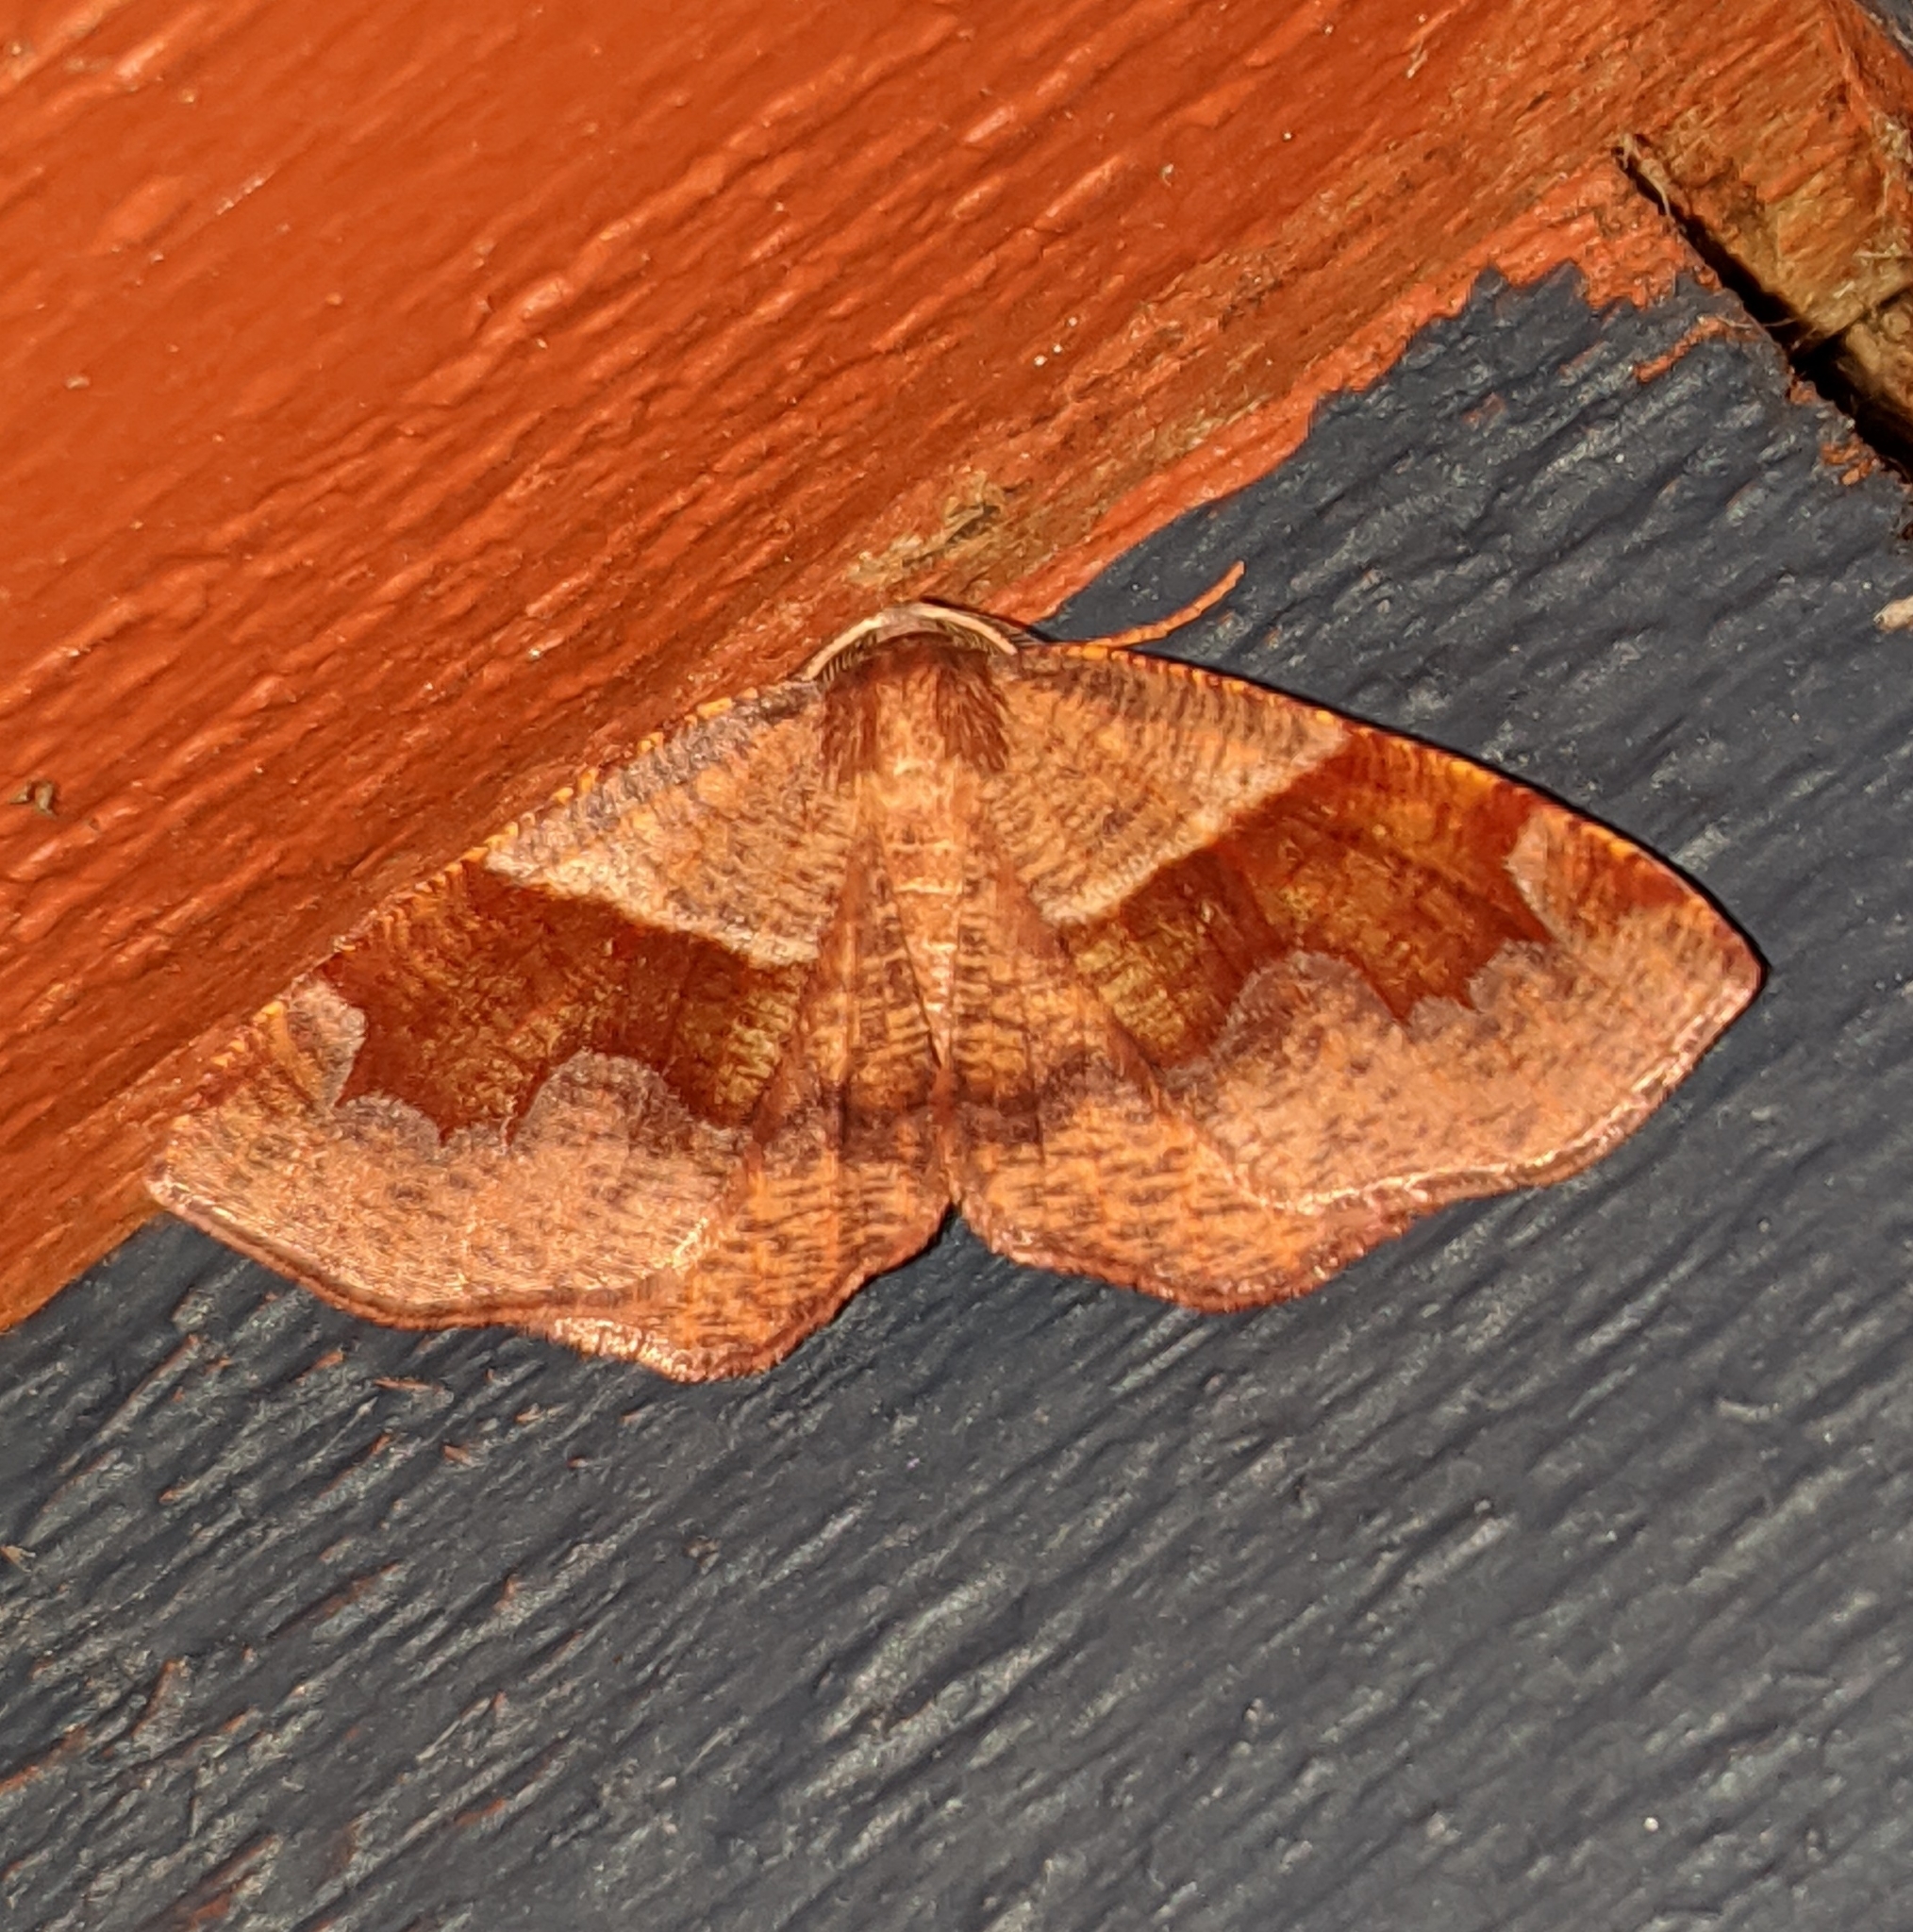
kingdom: Animalia
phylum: Arthropoda
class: Insecta
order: Lepidoptera
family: Geometridae
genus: Plagodis
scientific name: Plagodis pulveraria
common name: Barred umber
